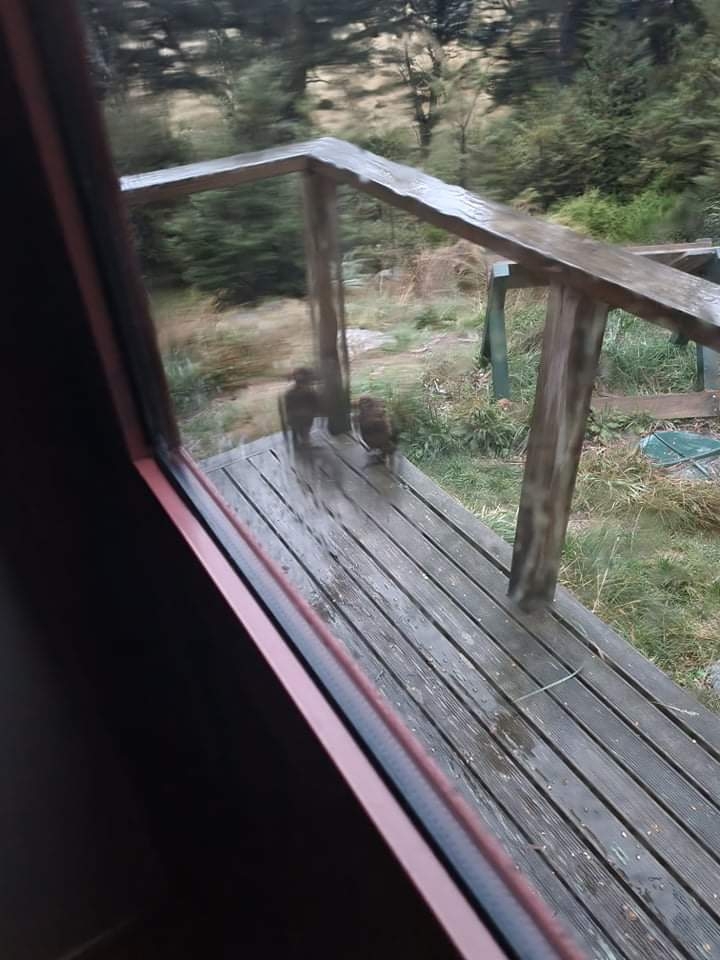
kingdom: Animalia
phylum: Chordata
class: Aves
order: Psittaciformes
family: Psittacidae
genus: Nestor
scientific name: Nestor notabilis
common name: Kea
